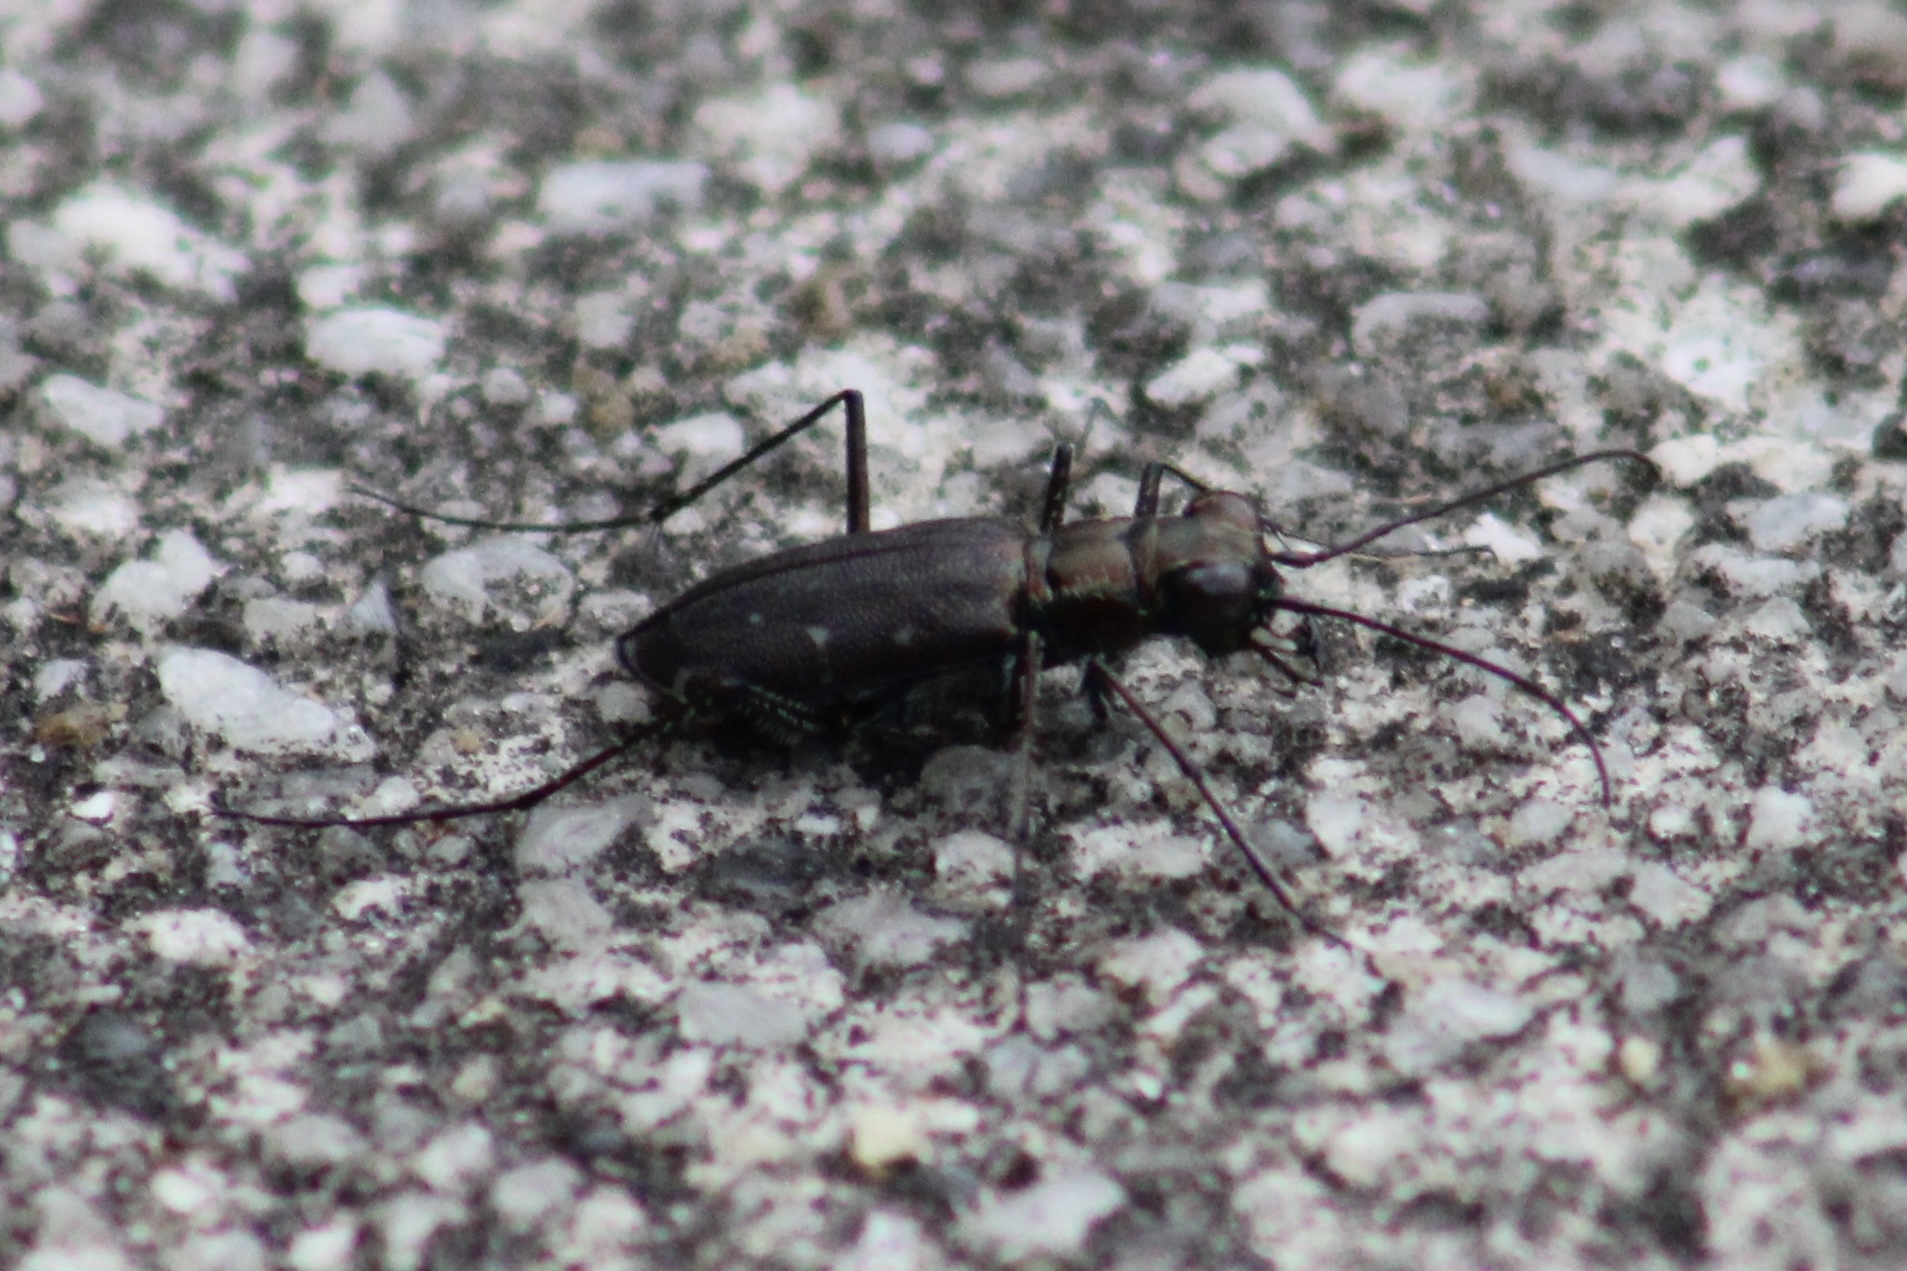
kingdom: Animalia
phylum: Arthropoda
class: Insecta
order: Coleoptera
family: Carabidae
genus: Cicindela
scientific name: Cicindela punctulata
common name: Punctured tiger beetle
